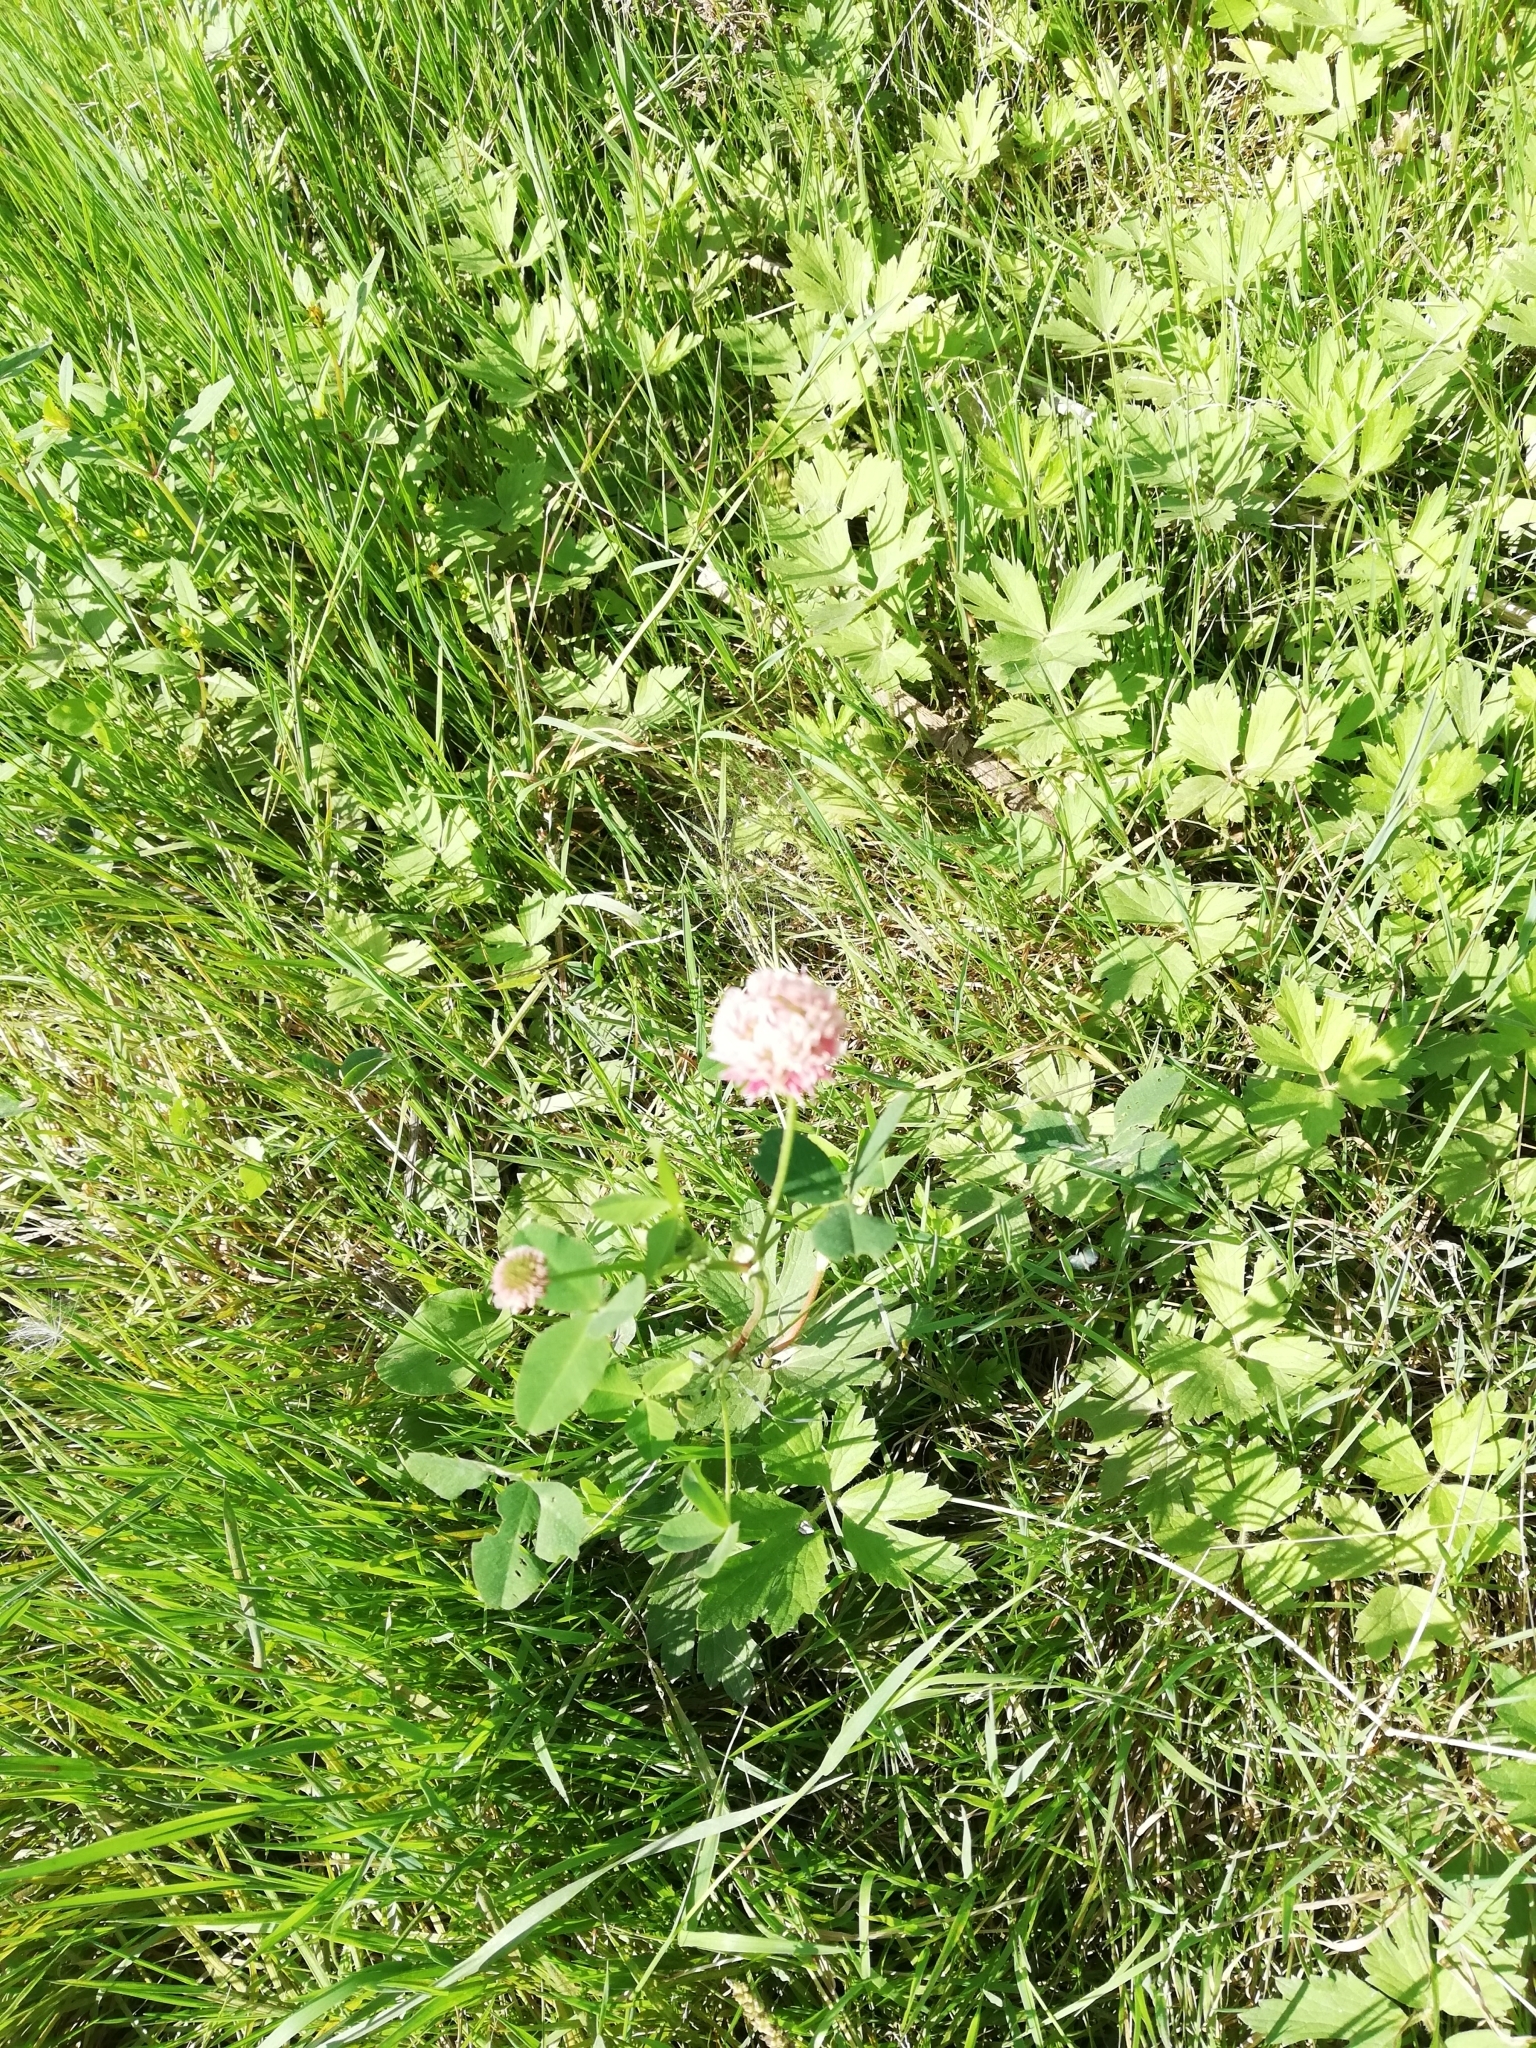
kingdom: Plantae
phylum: Tracheophyta
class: Magnoliopsida
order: Fabales
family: Fabaceae
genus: Trifolium
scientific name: Trifolium hybridum
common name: Alsike clover
